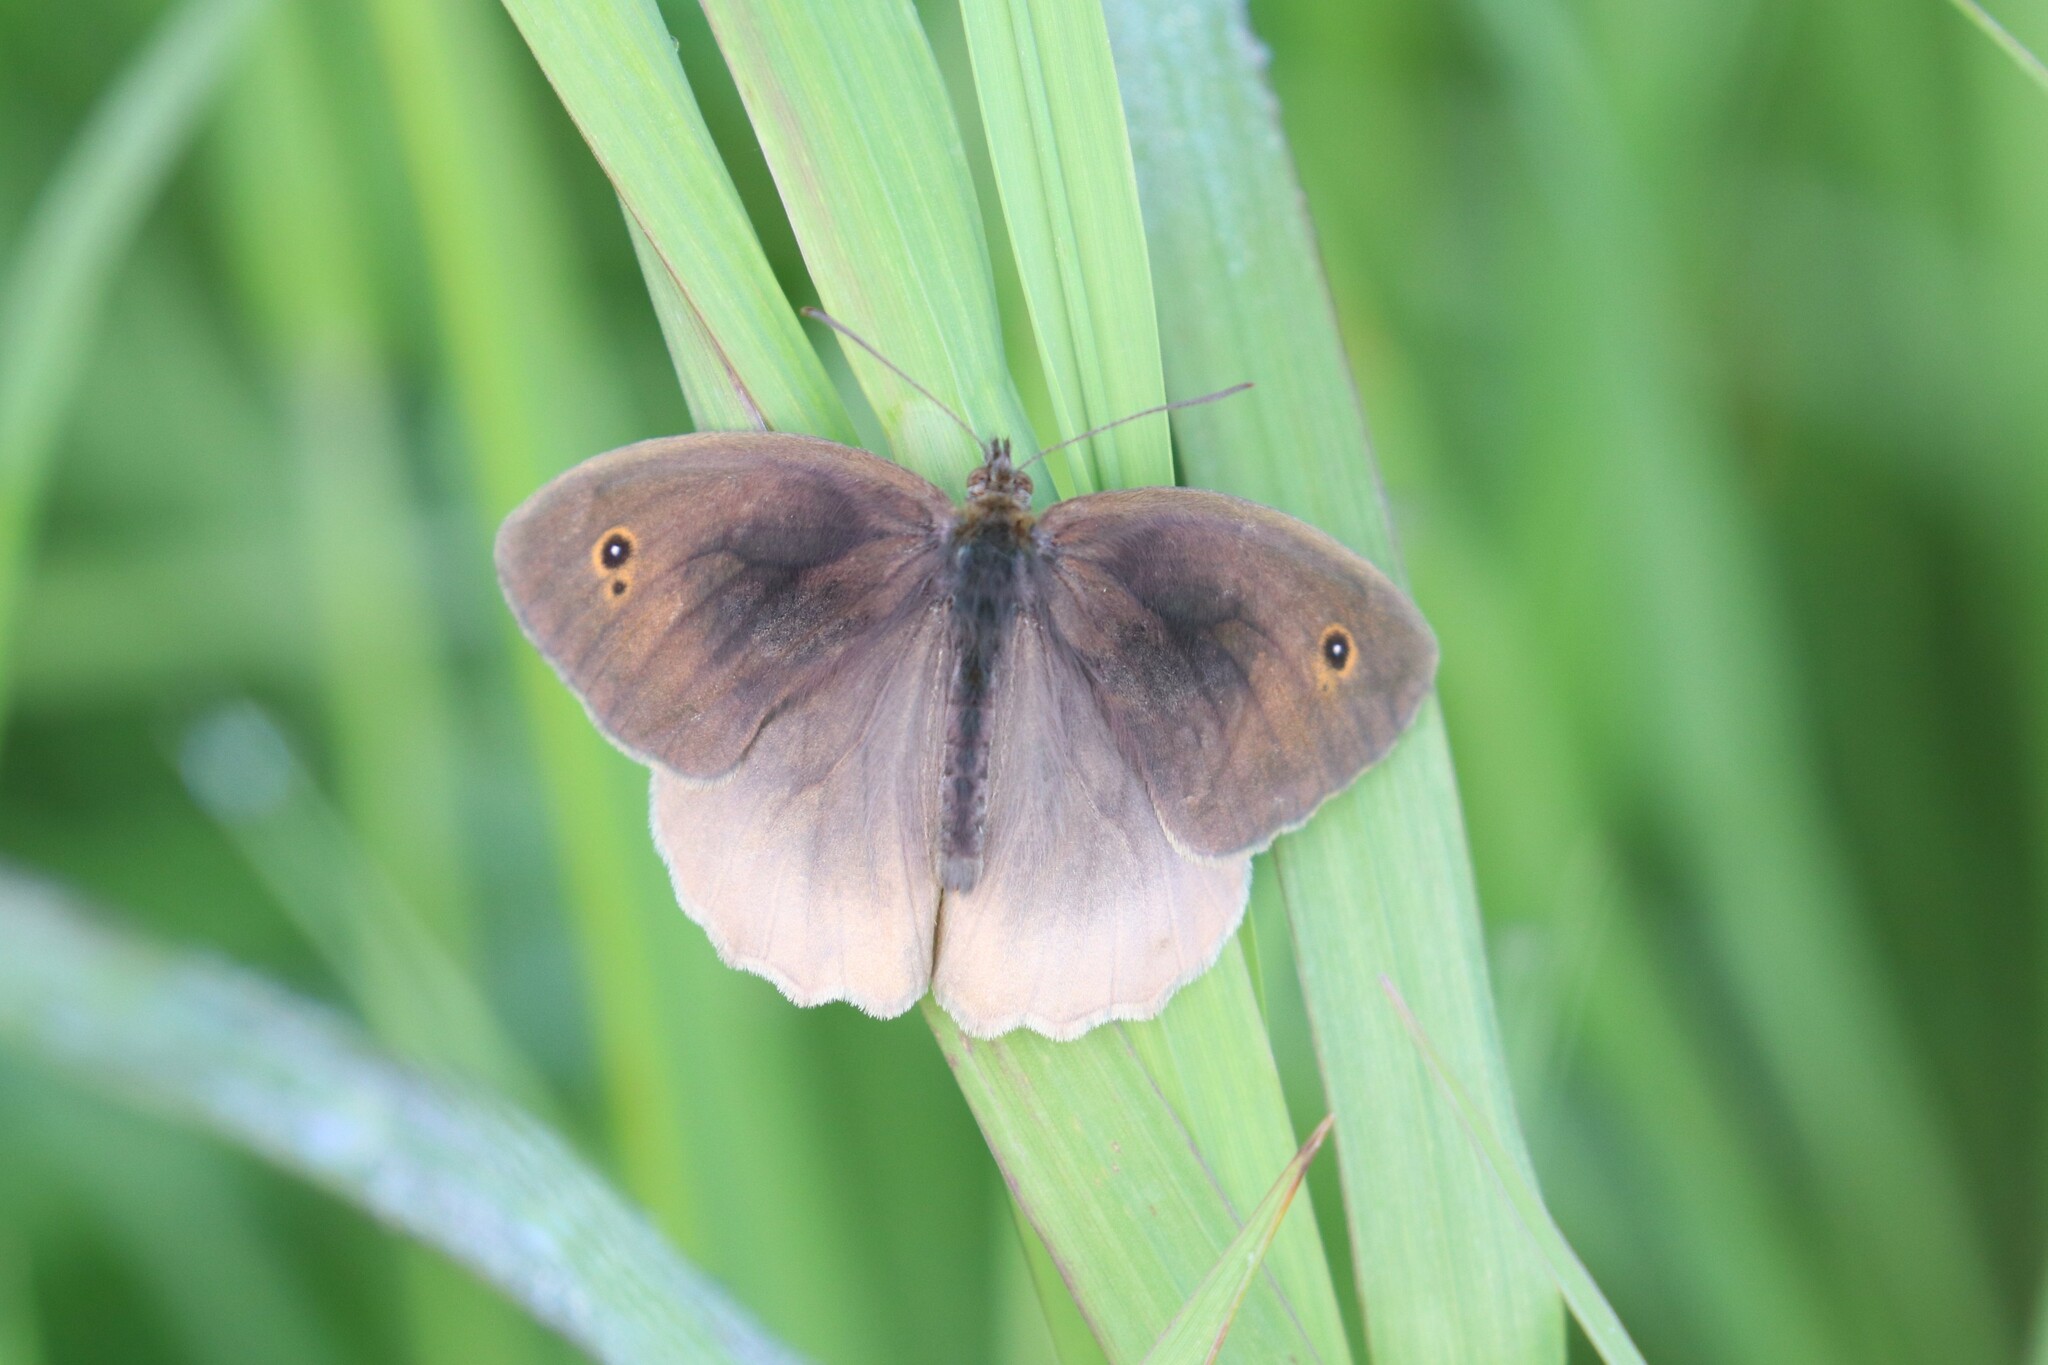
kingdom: Animalia
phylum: Arthropoda
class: Insecta
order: Lepidoptera
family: Nymphalidae
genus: Maniola
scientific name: Maniola jurtina
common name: Meadow brown
